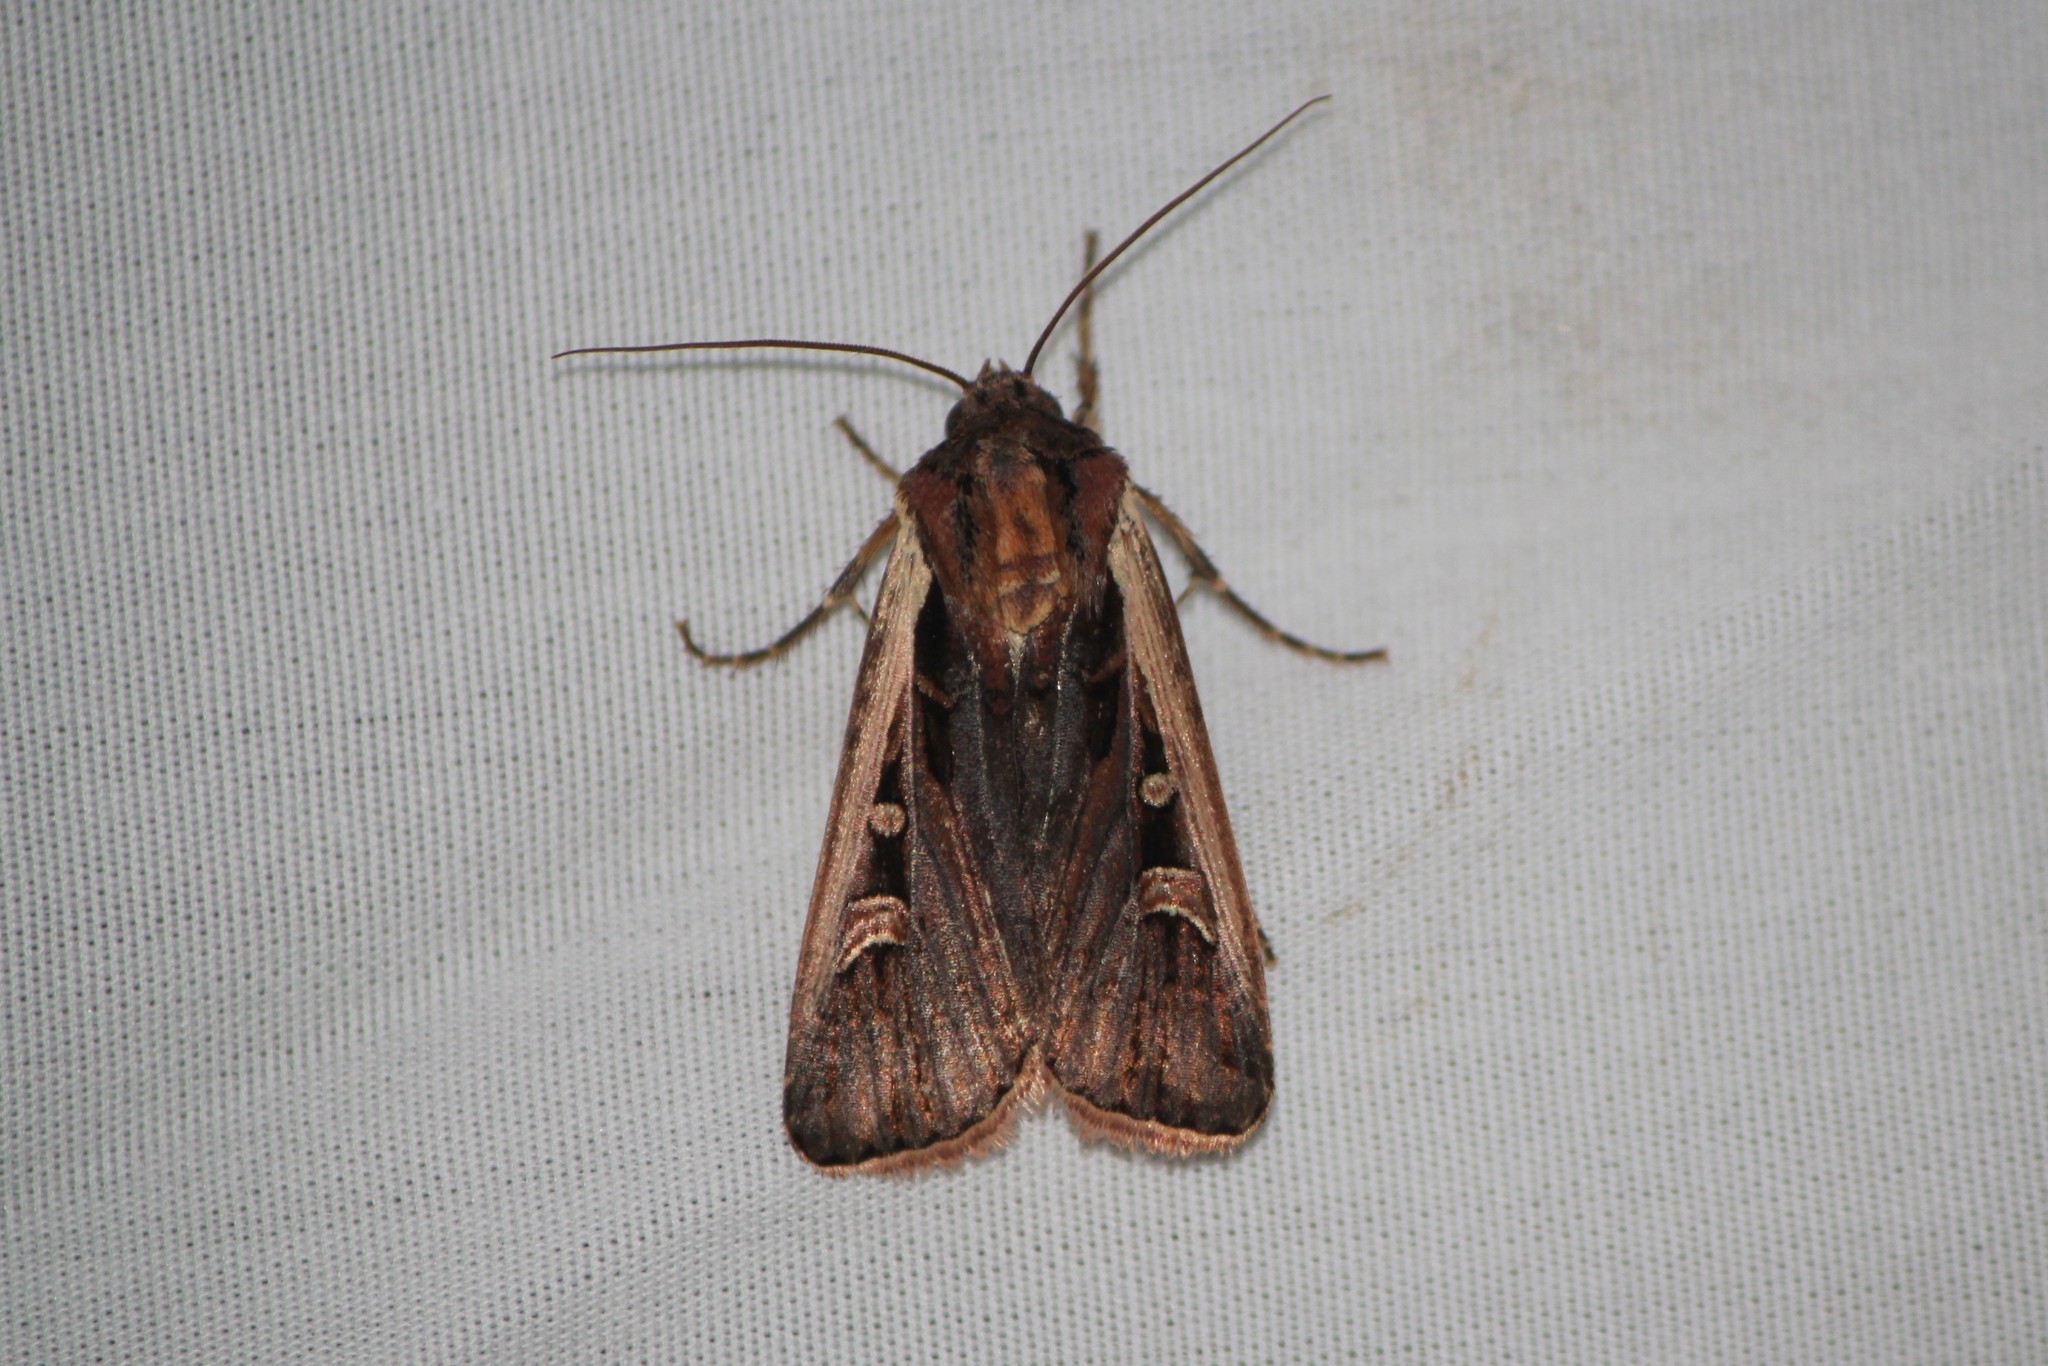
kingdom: Animalia
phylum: Arthropoda
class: Insecta
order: Lepidoptera
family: Noctuidae
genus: Striacosta
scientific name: Striacosta albicosta
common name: Western bean cutworm moth
